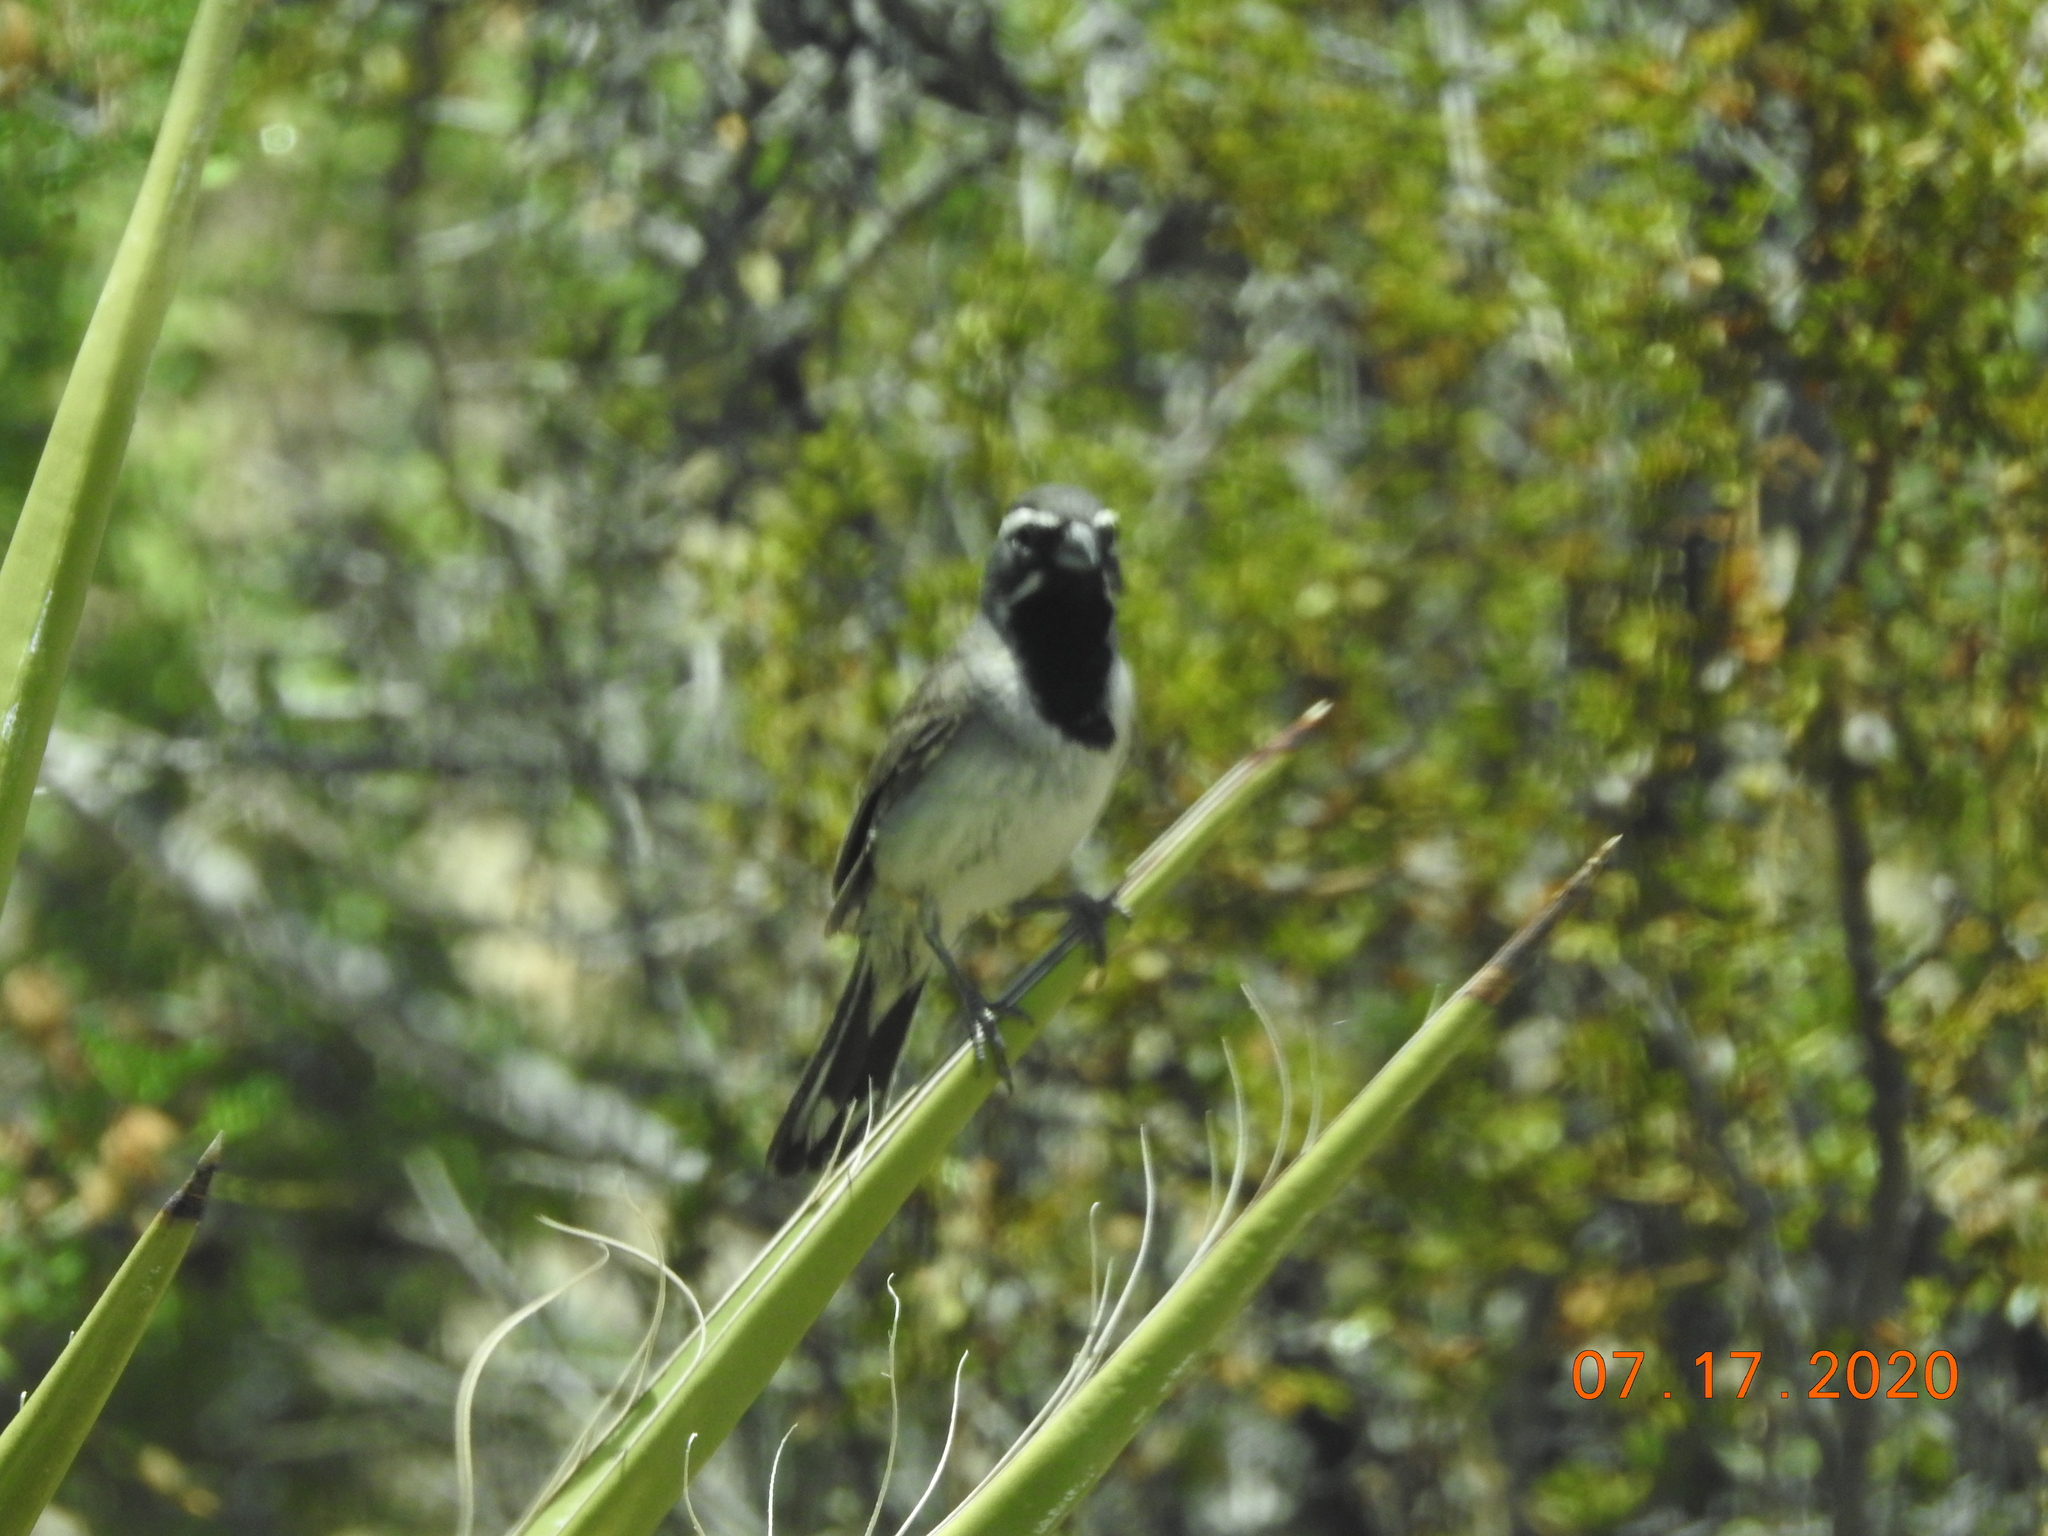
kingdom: Animalia
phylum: Chordata
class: Aves
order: Passeriformes
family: Passerellidae
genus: Amphispiza
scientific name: Amphispiza bilineata
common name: Black-throated sparrow
